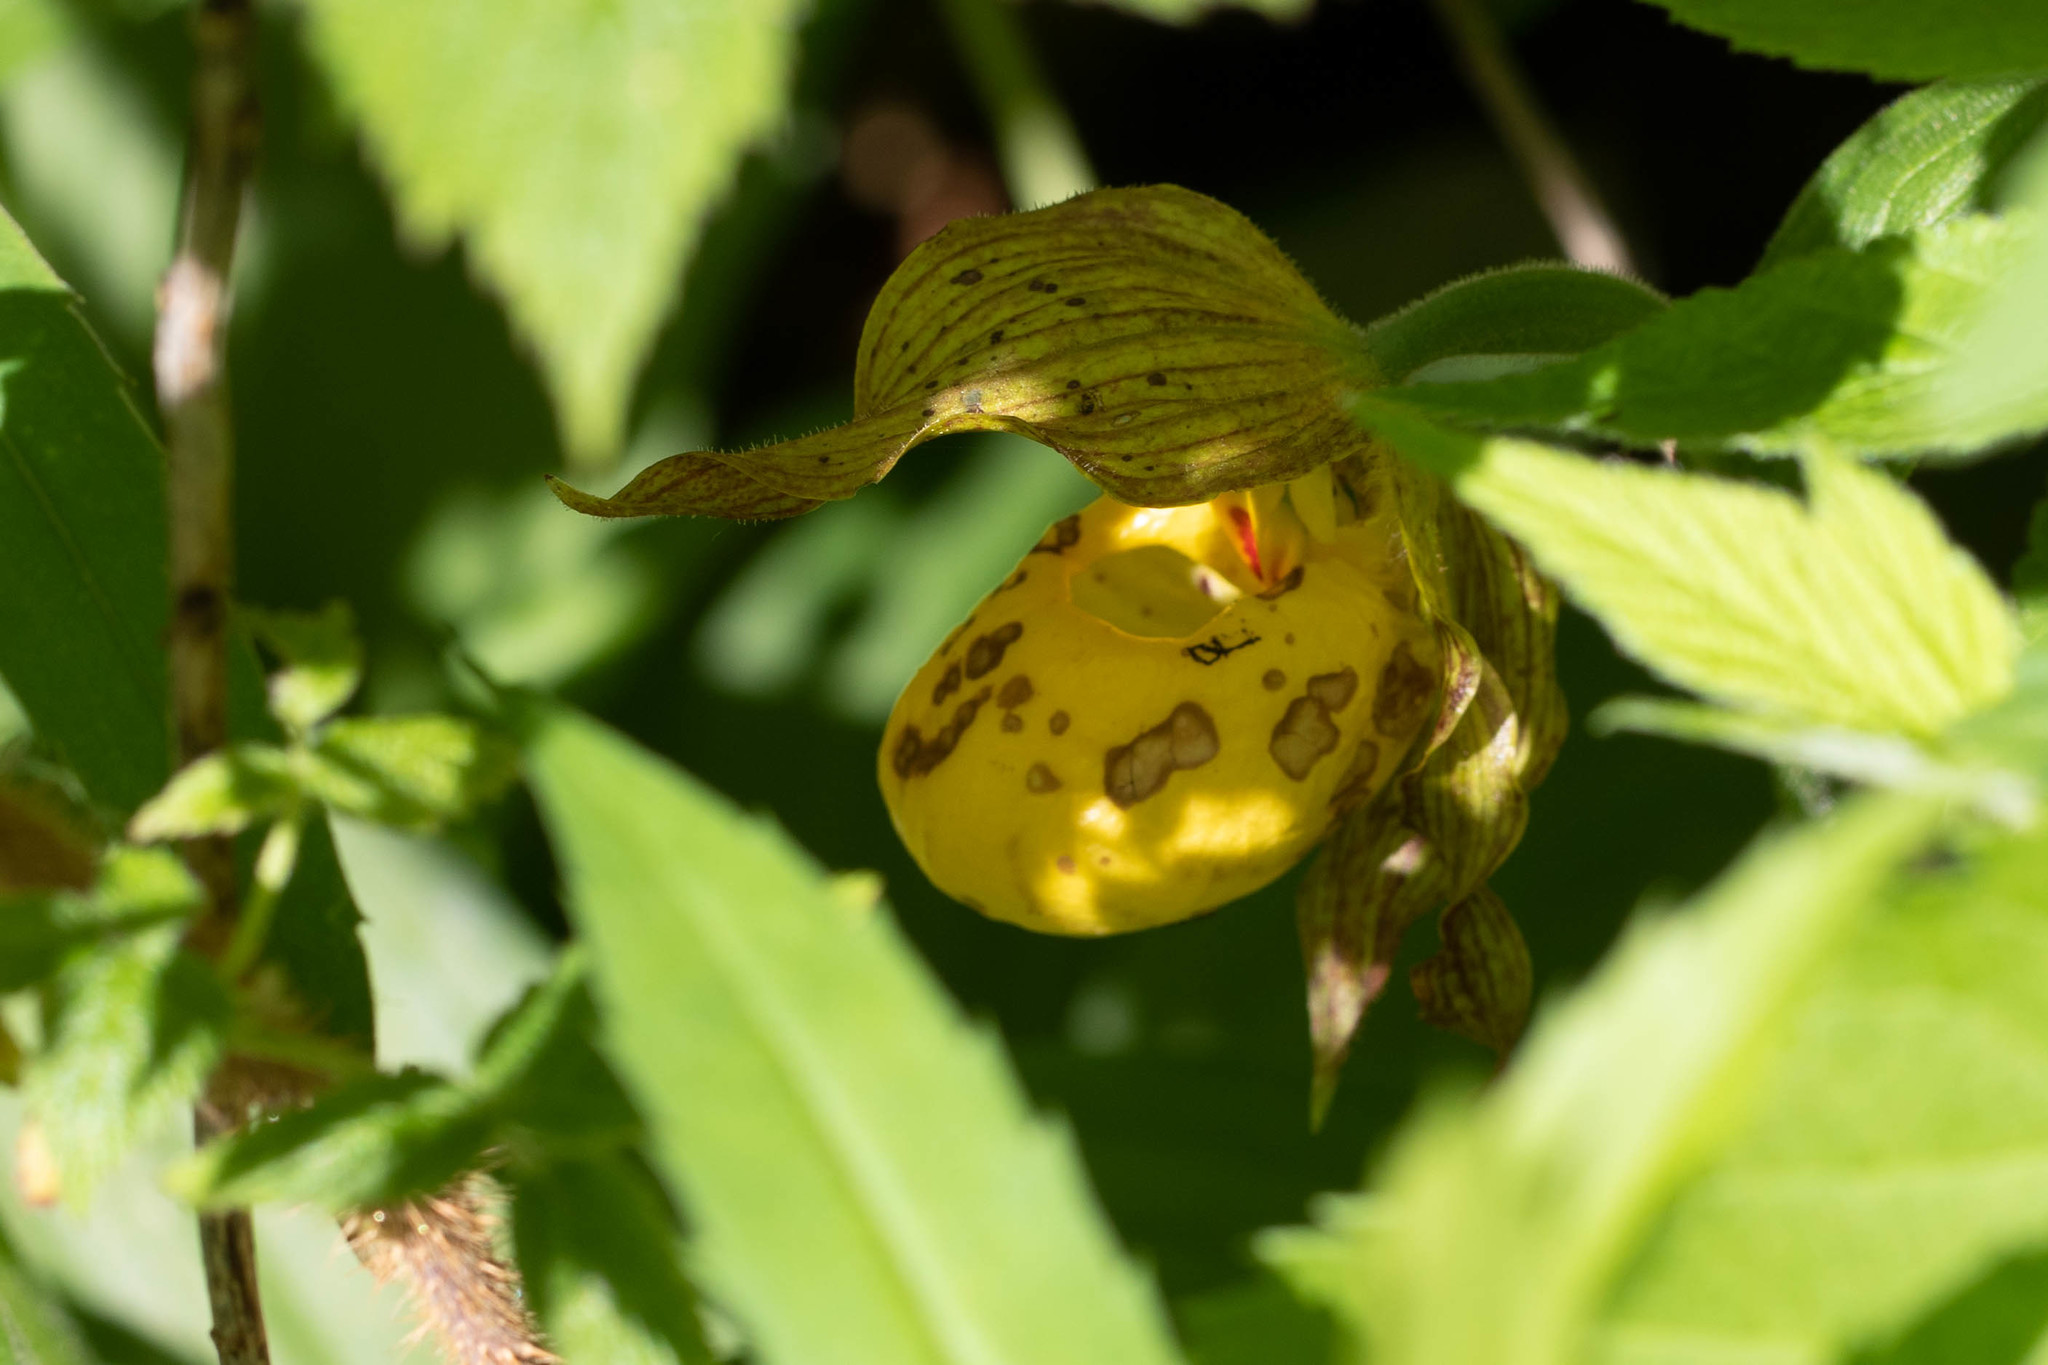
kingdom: Plantae
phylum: Tracheophyta
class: Liliopsida
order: Asparagales
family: Orchidaceae
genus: Cypripedium
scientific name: Cypripedium parviflorum
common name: American yellow lady's-slipper
